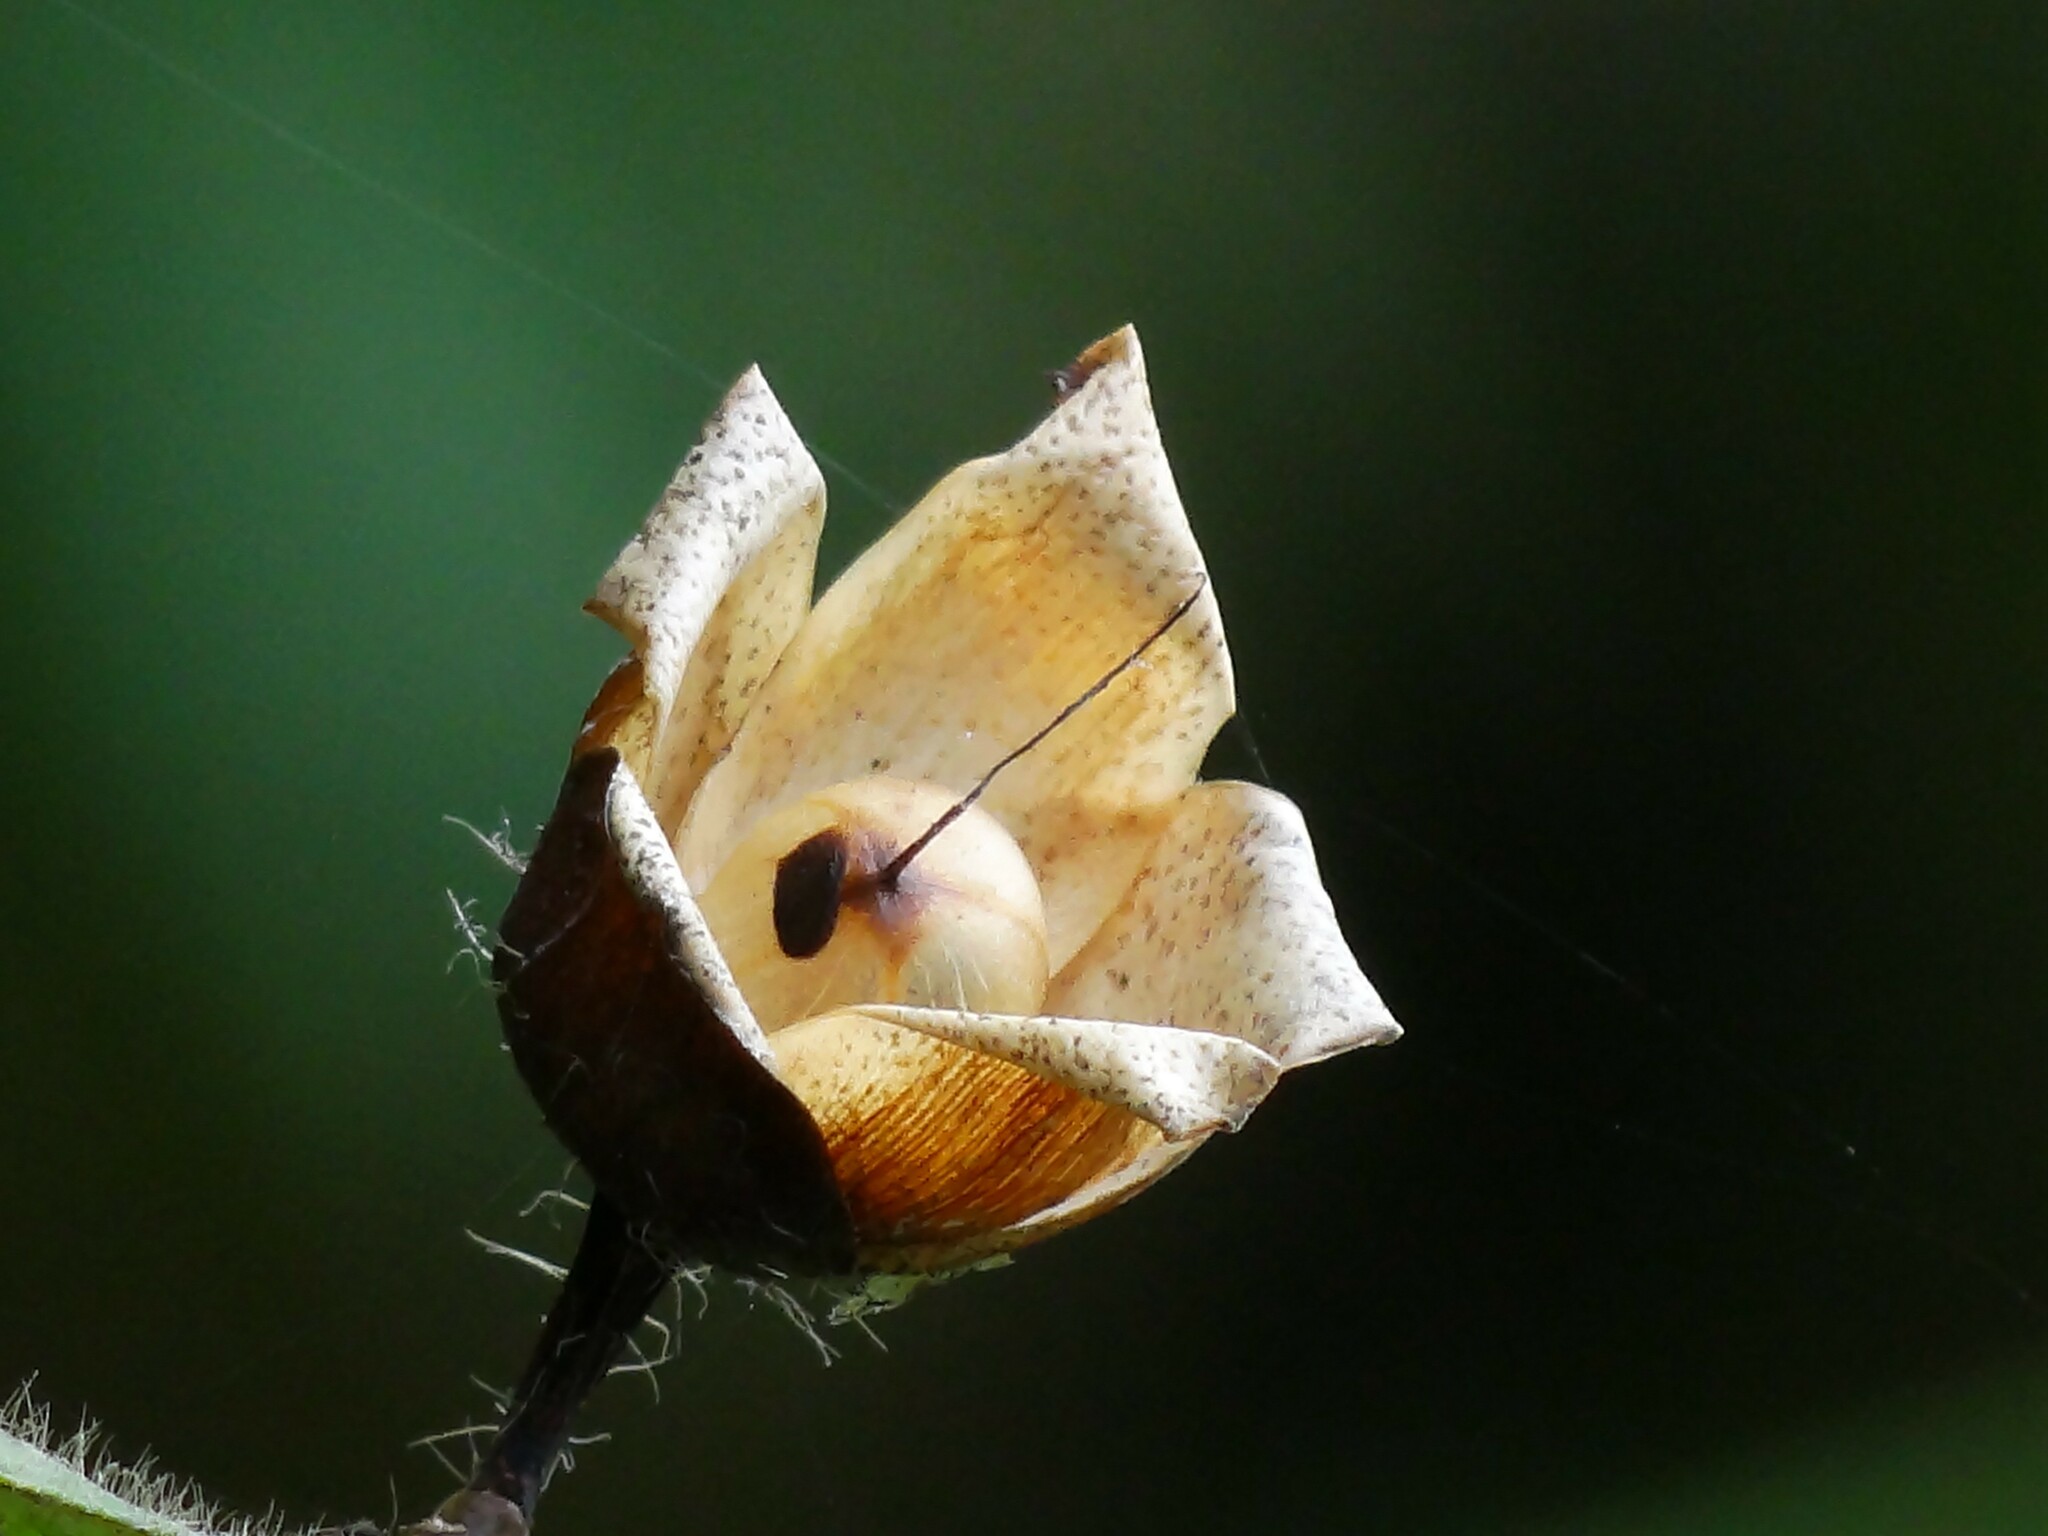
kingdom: Plantae
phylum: Tracheophyta
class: Magnoliopsida
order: Solanales
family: Convolvulaceae
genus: Distimake
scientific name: Distimake
